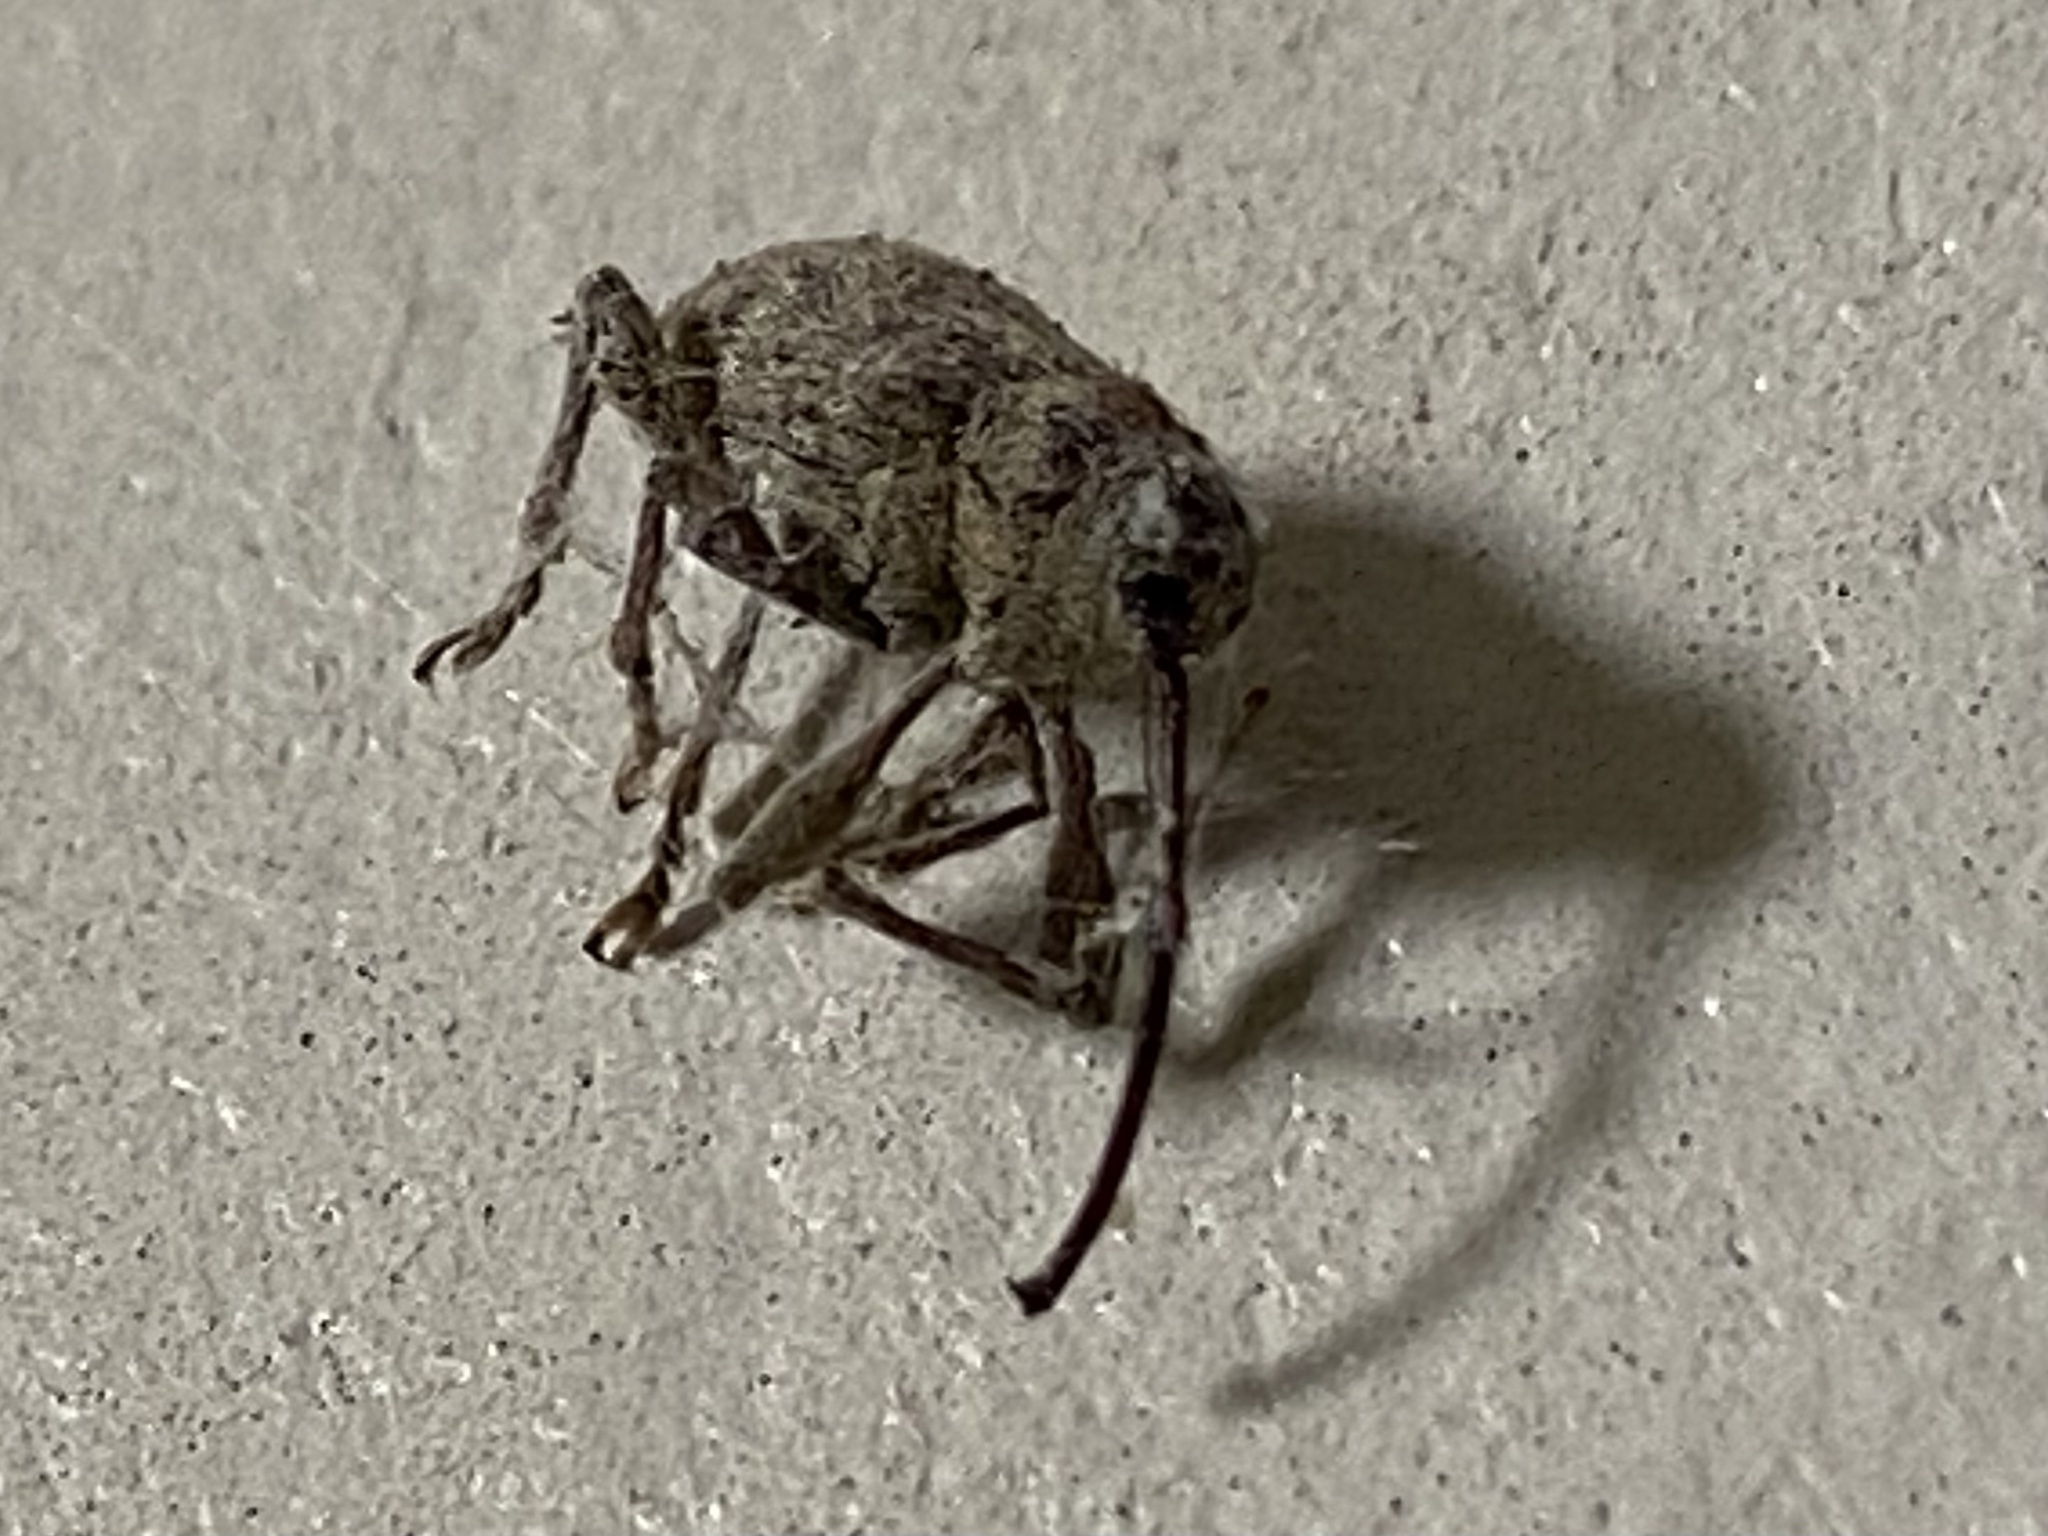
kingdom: Animalia
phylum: Arthropoda
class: Insecta
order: Coleoptera
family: Curculionidae
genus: Curculio
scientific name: Curculio
